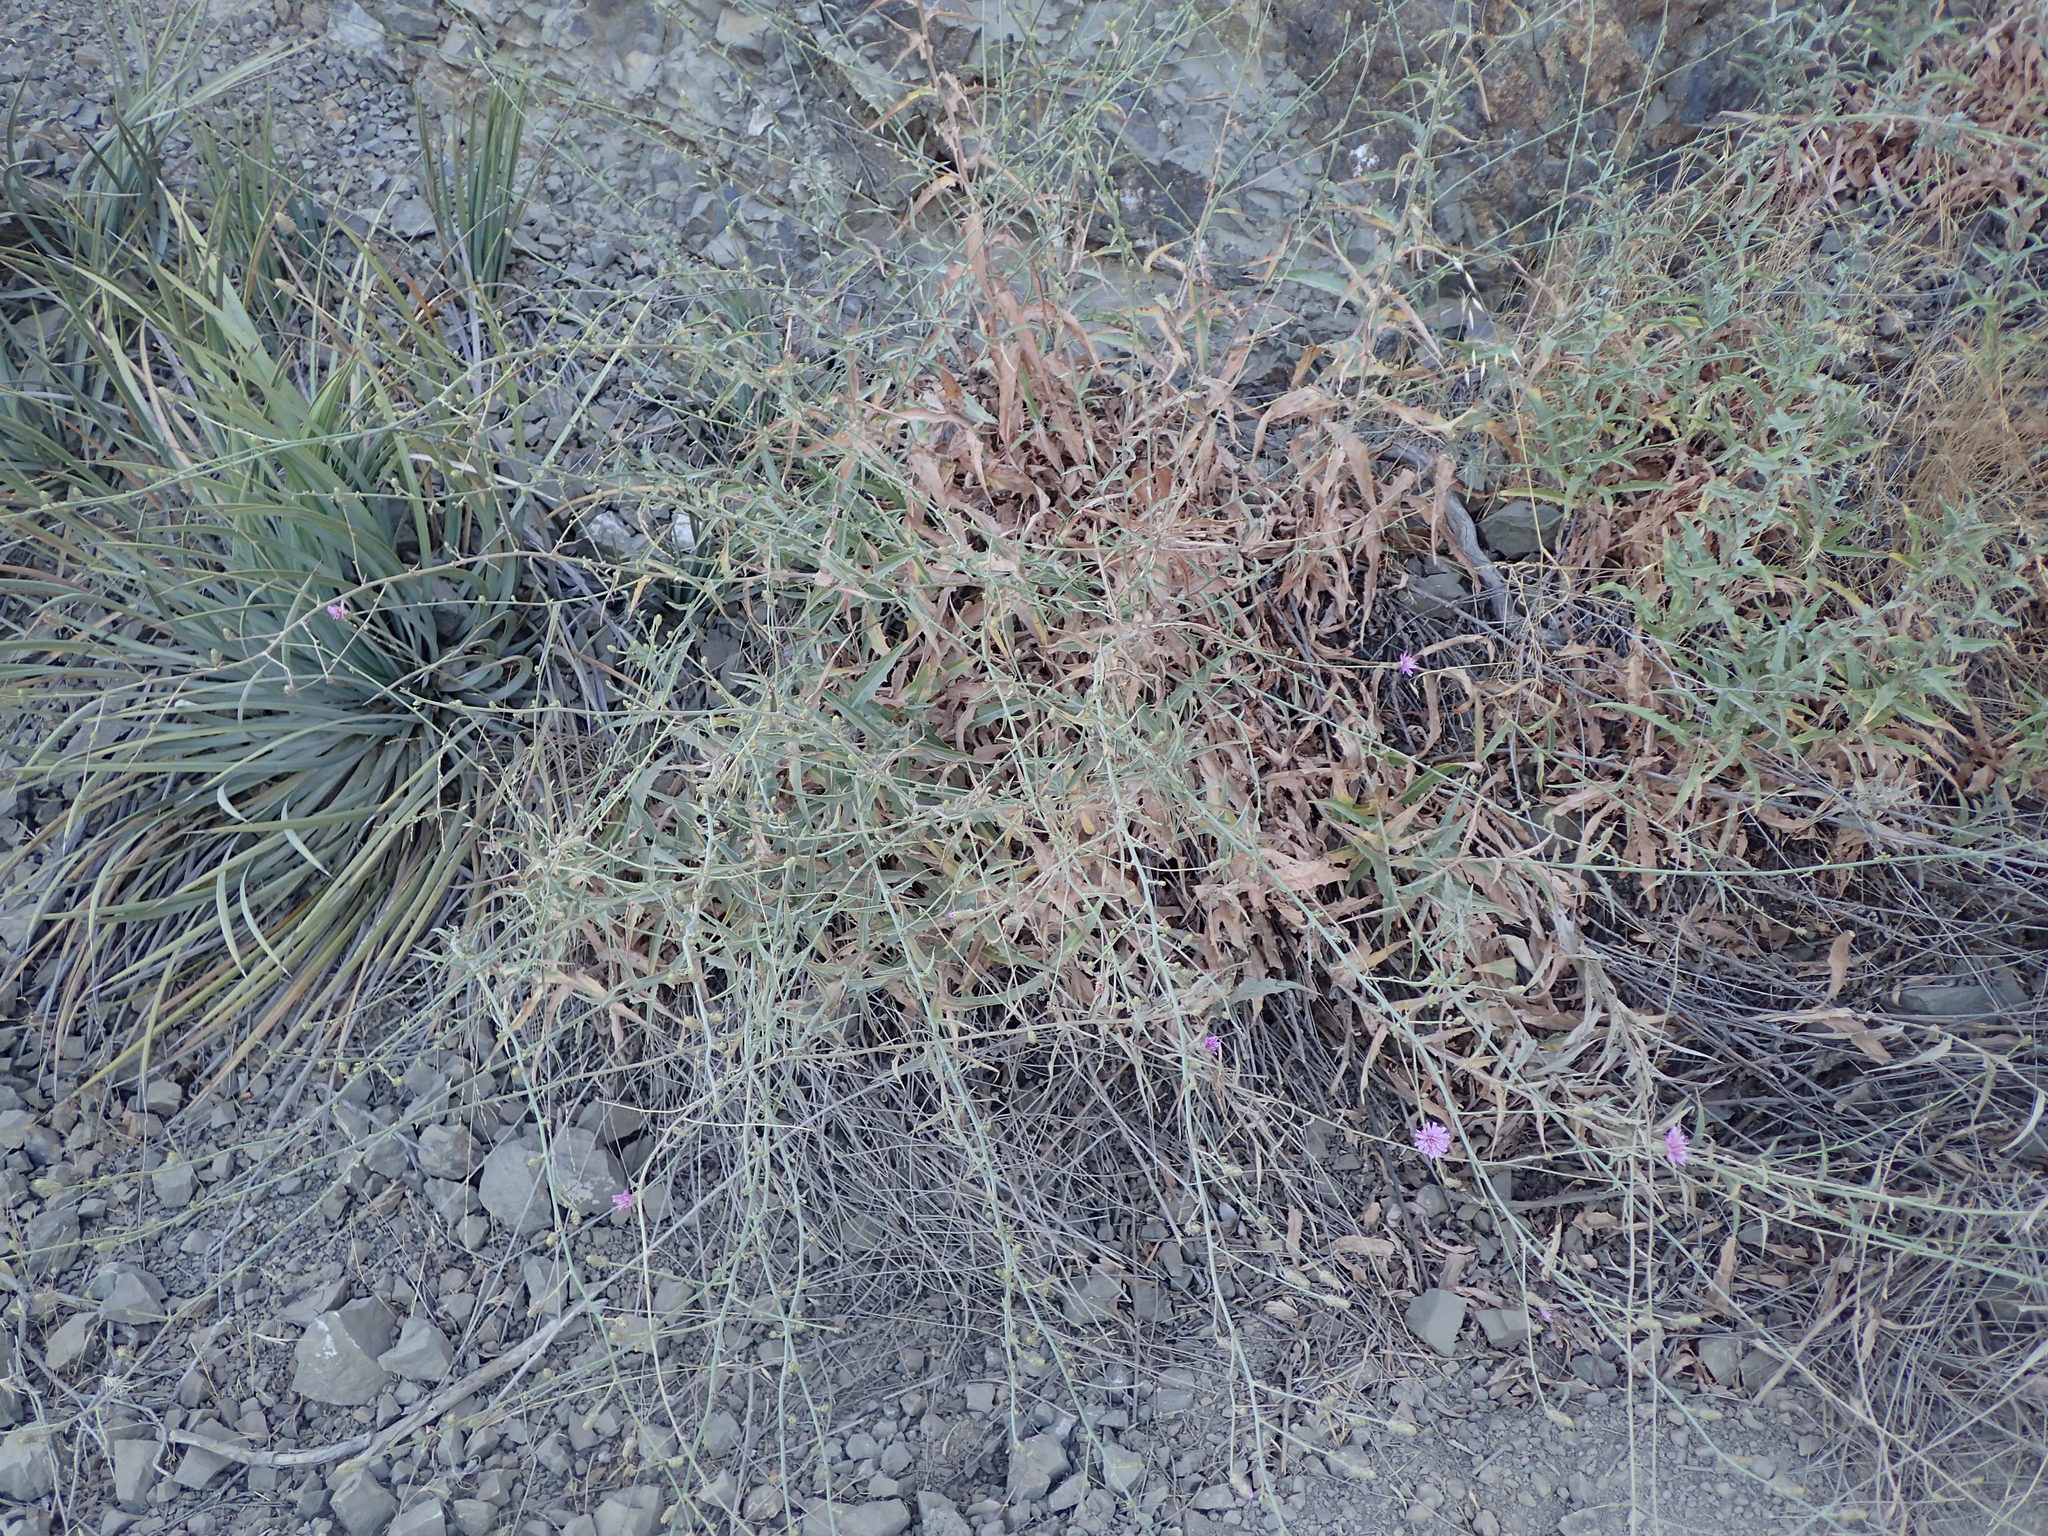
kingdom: Plantae
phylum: Tracheophyta
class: Magnoliopsida
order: Asterales
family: Asteraceae
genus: Stephanomeria
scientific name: Stephanomeria cichoriacea
